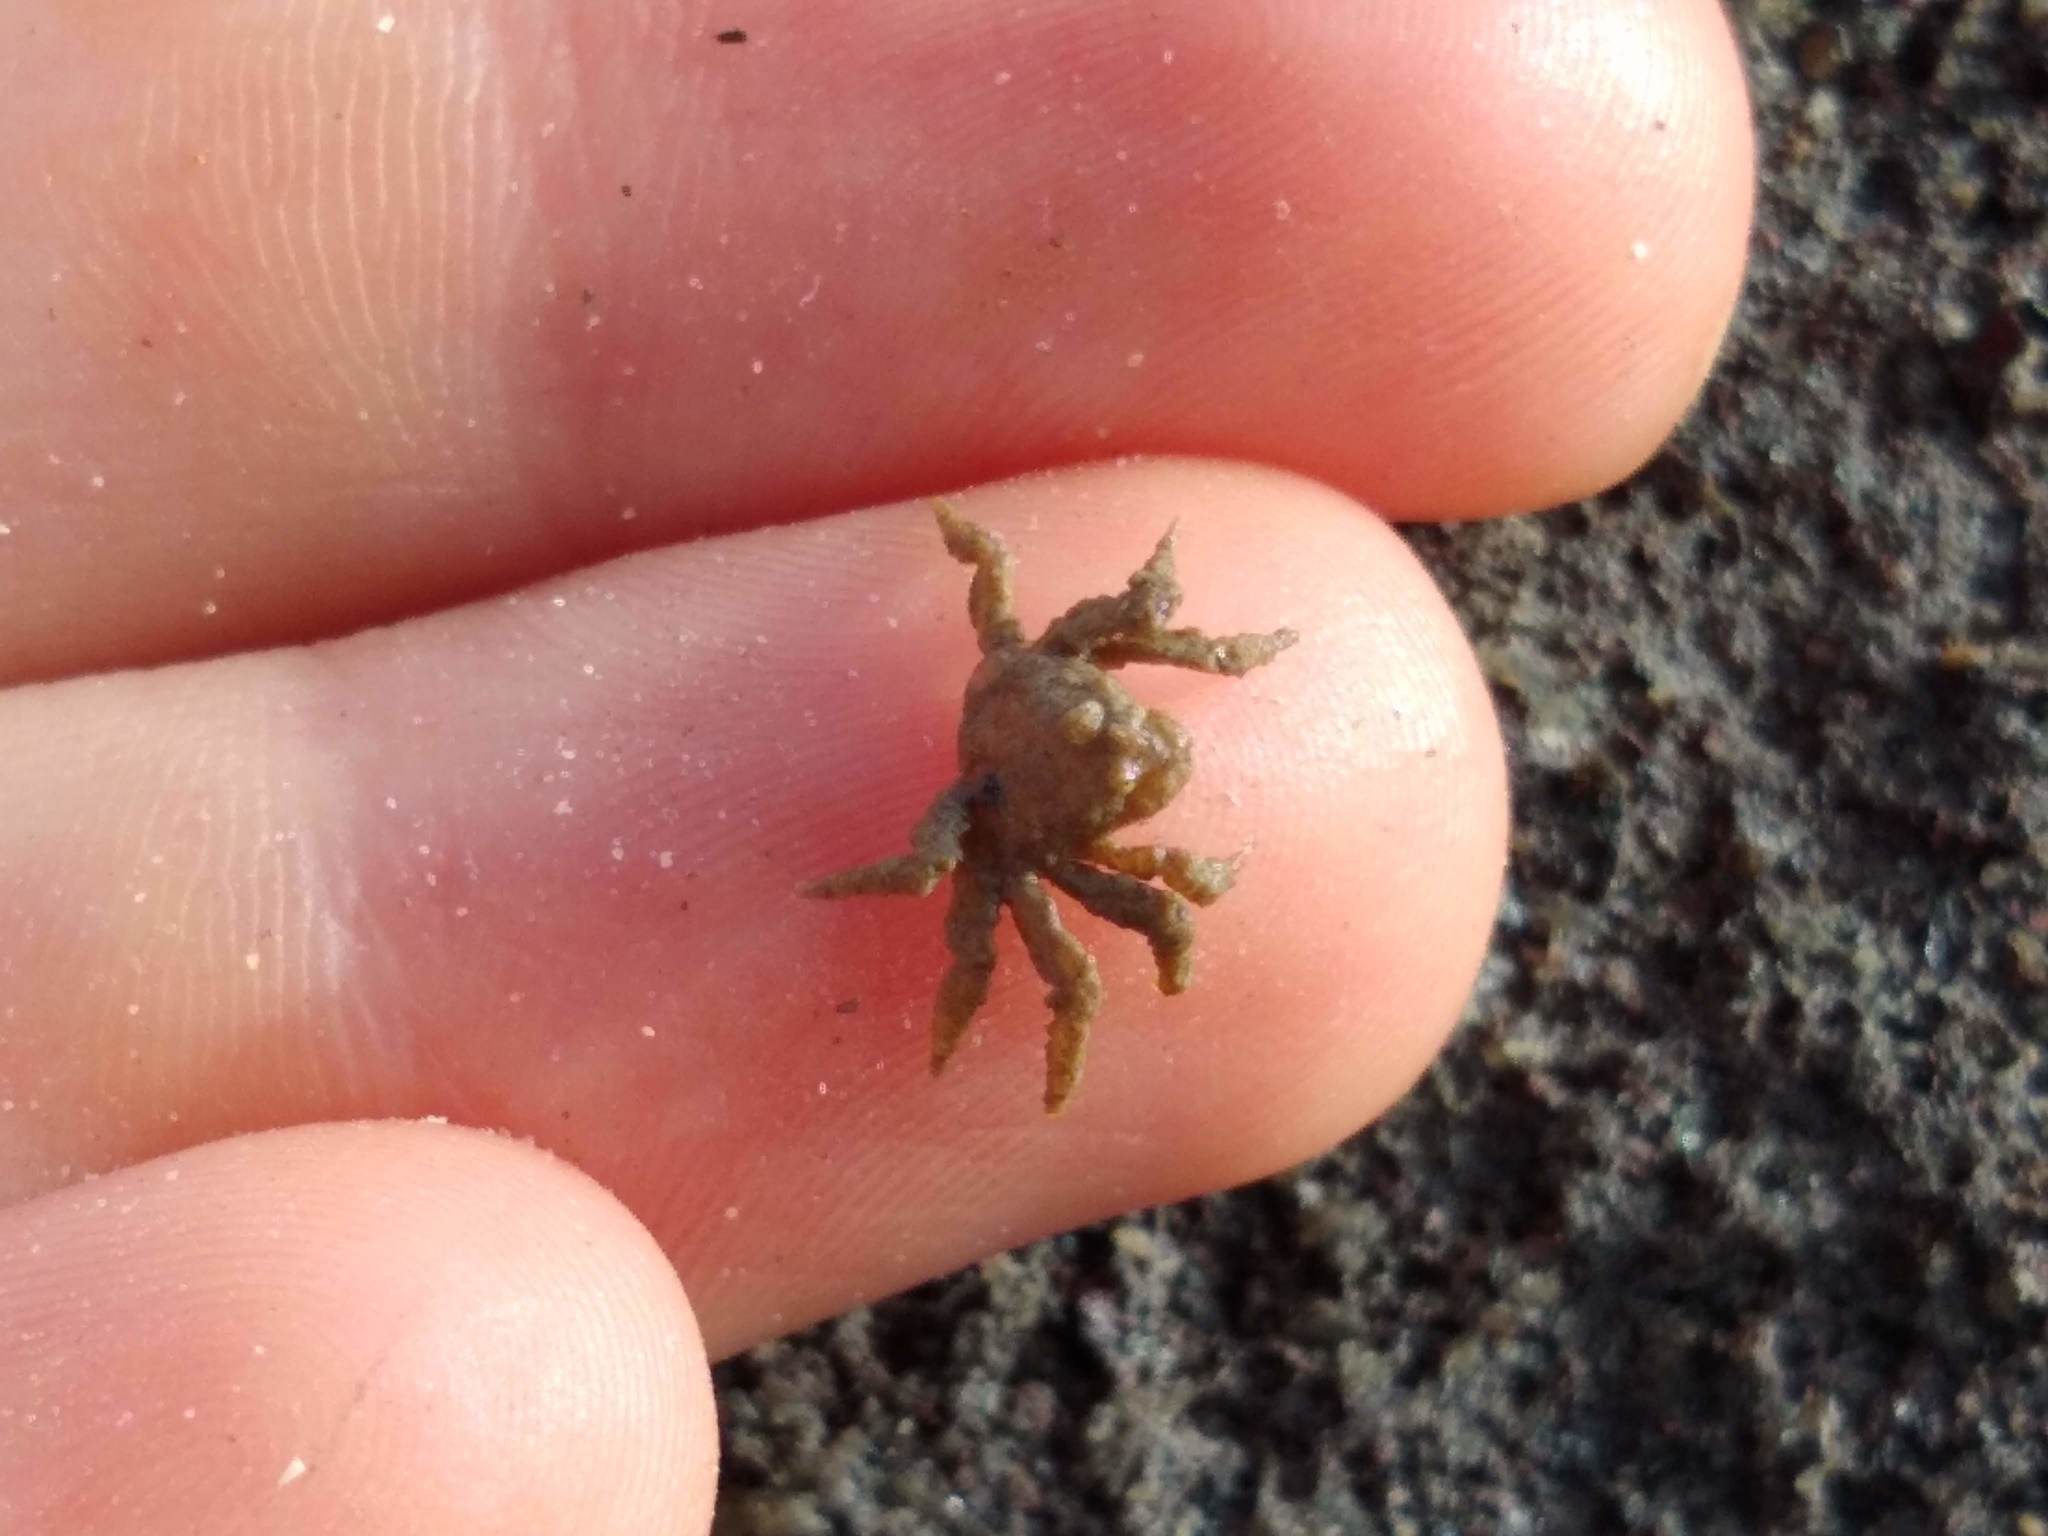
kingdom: Animalia
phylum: Arthropoda
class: Malacostraca
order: Decapoda
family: Hymenosomatidae
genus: Neohymenicus
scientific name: Neohymenicus pubescens
